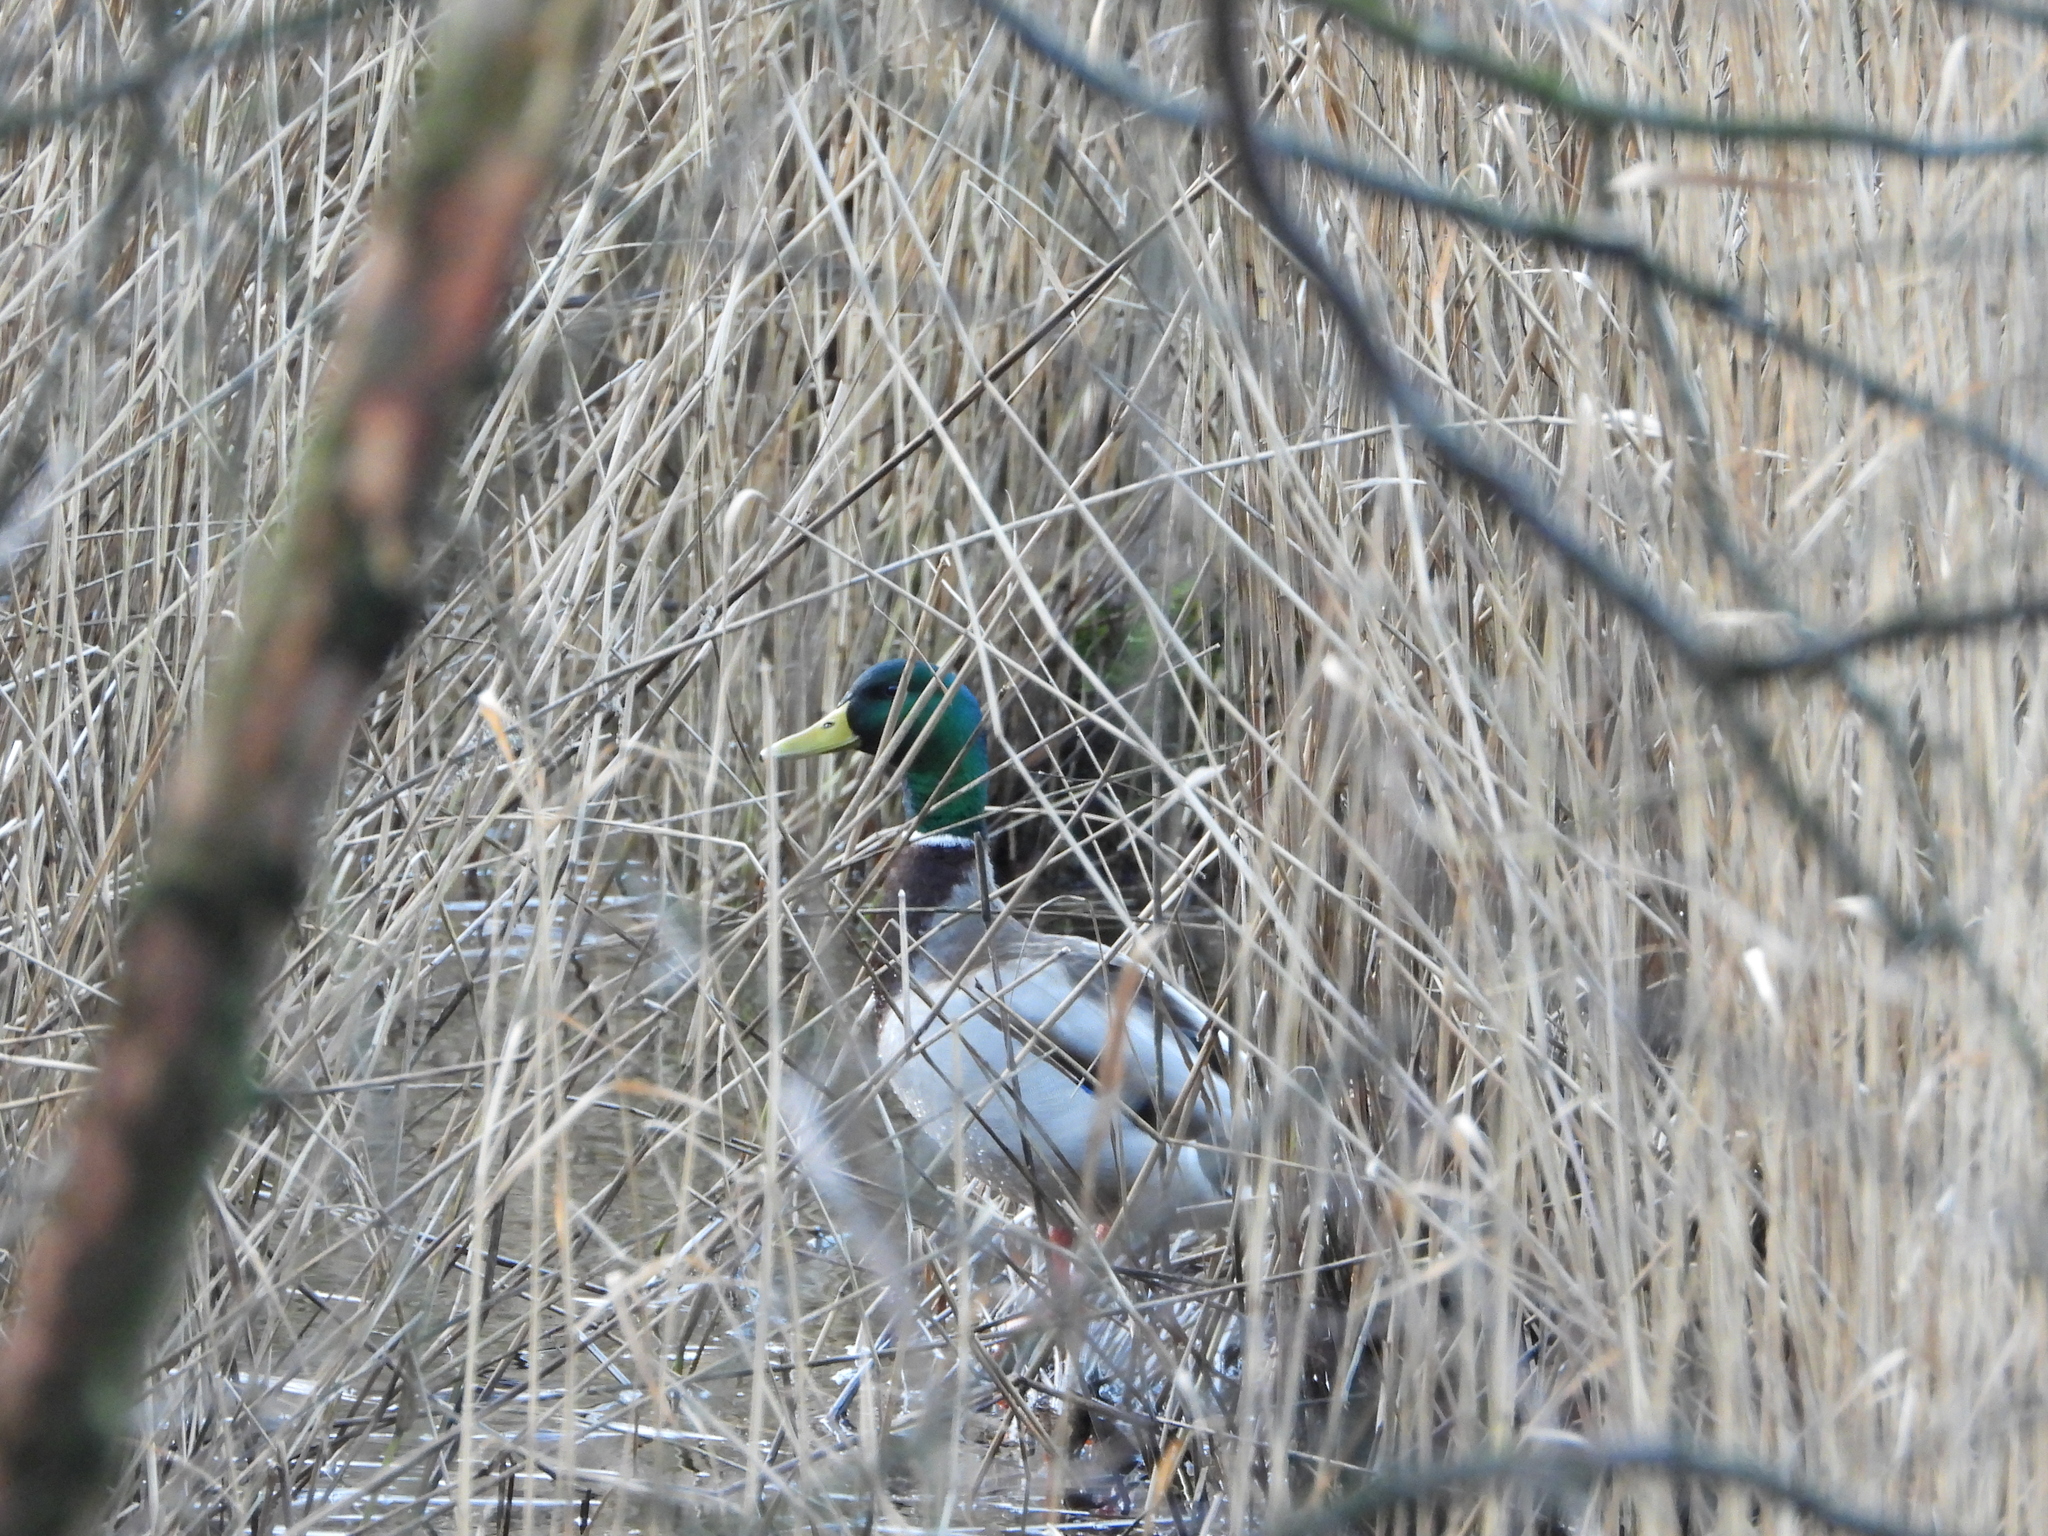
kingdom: Animalia
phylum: Chordata
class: Aves
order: Anseriformes
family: Anatidae
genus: Anas
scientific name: Anas platyrhynchos
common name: Mallard
